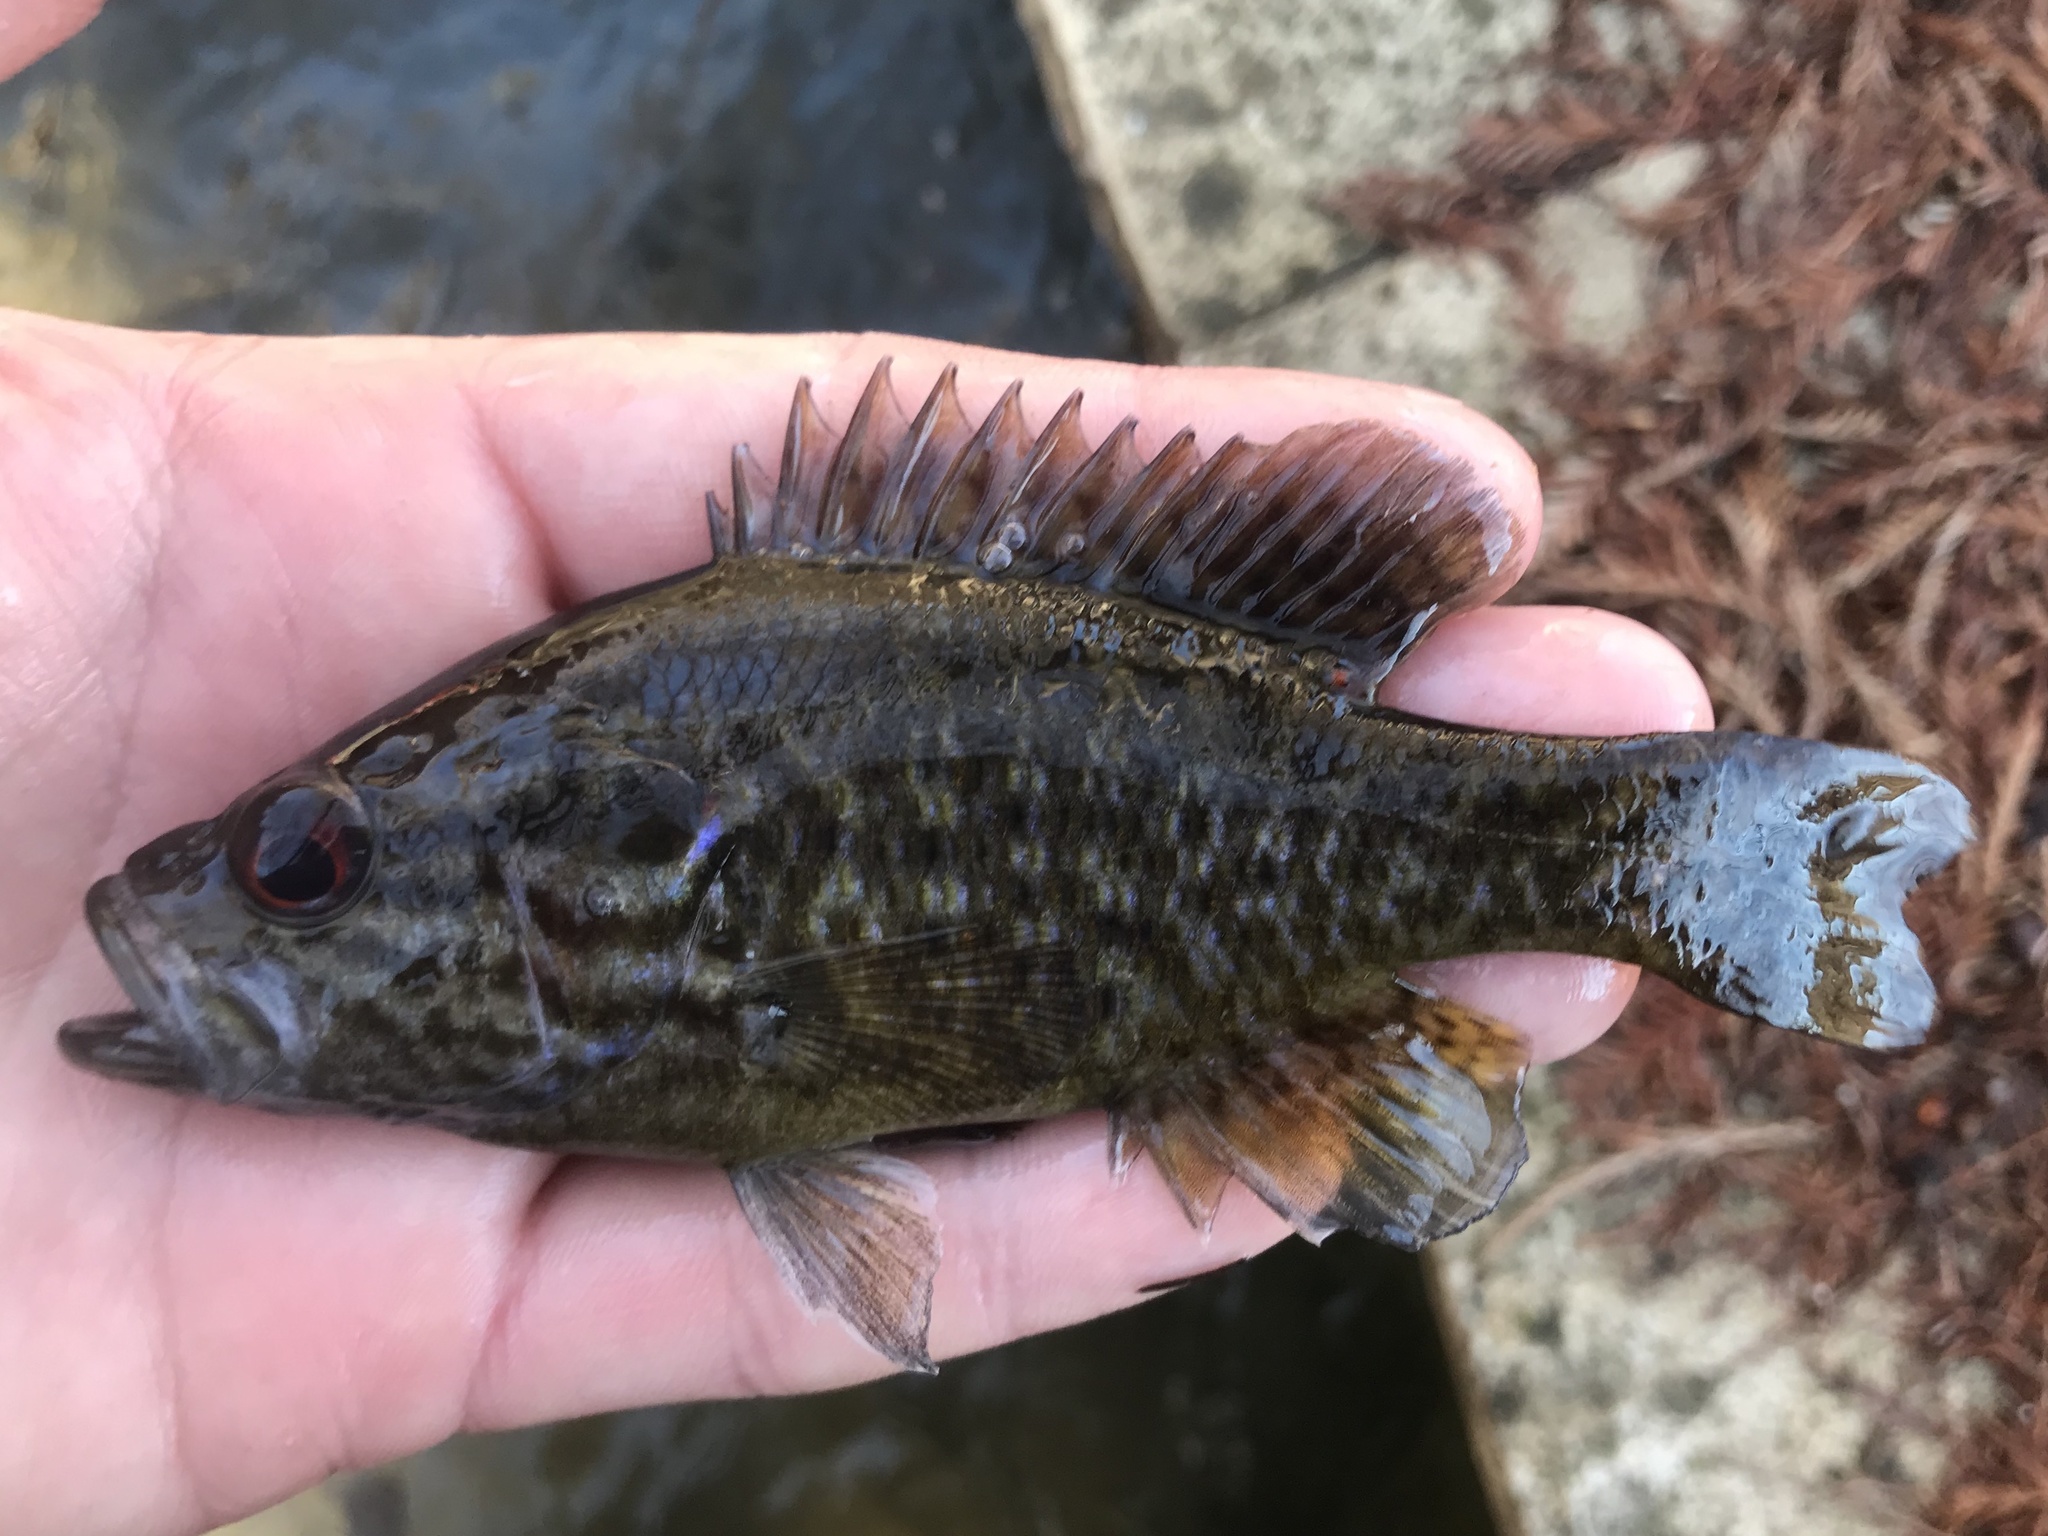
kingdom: Animalia
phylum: Chordata
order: Perciformes
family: Centrarchidae
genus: Lepomis
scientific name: Lepomis gulosus
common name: Warmouth
